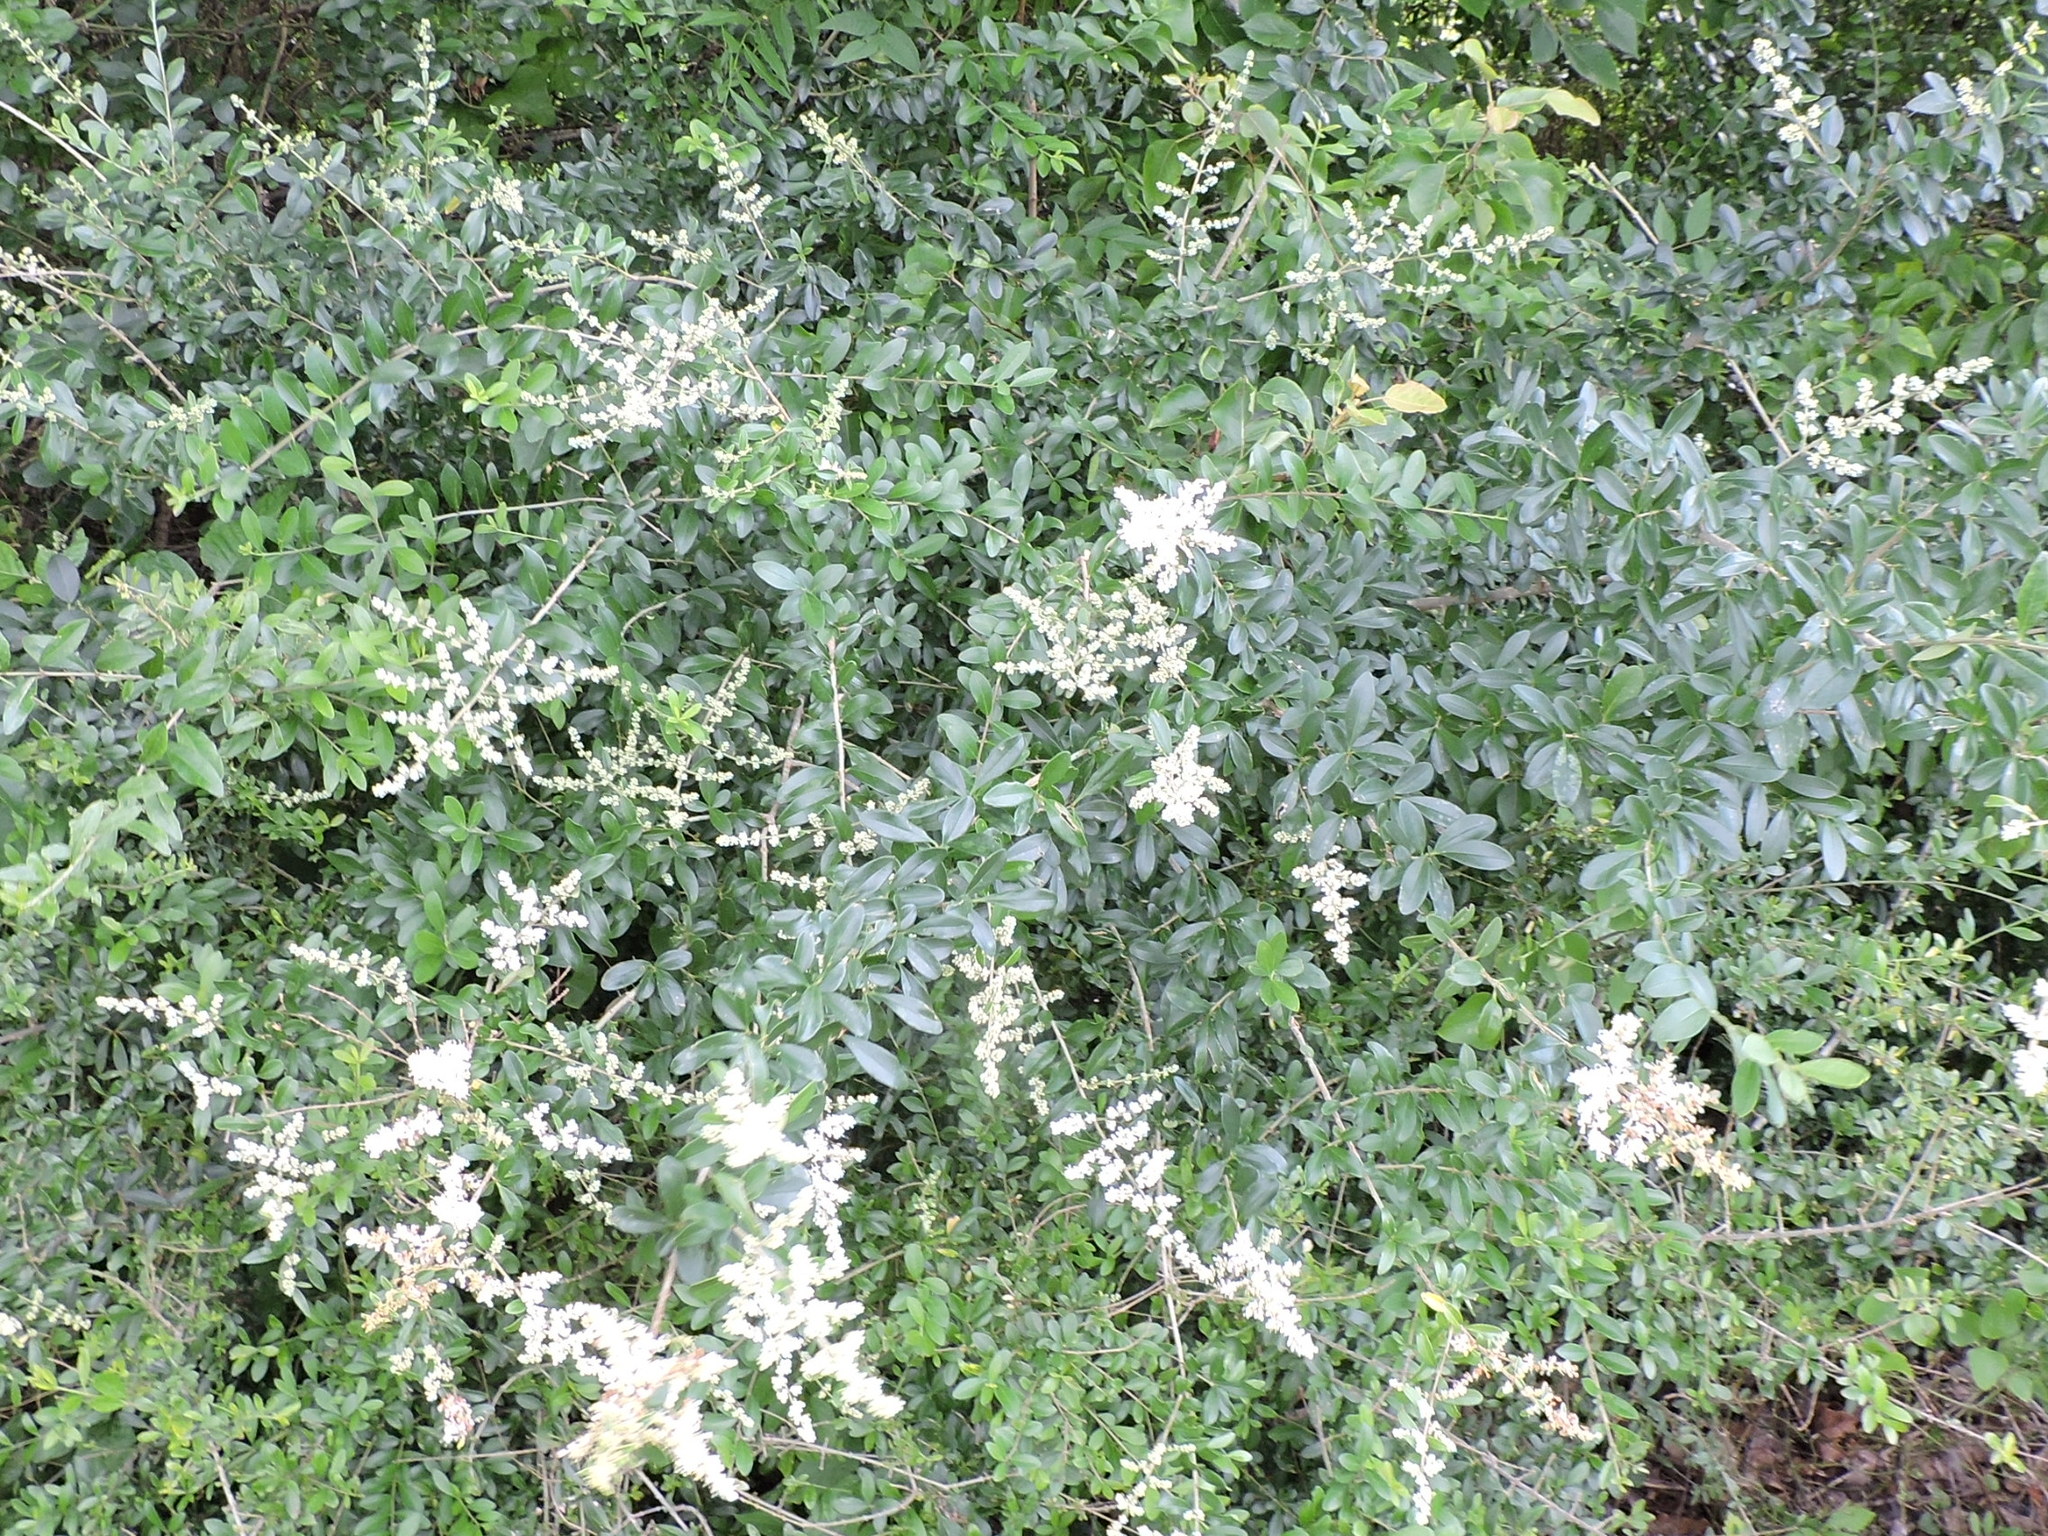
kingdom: Plantae
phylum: Tracheophyta
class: Magnoliopsida
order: Lamiales
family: Oleaceae
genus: Ligustrum
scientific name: Ligustrum quihoui
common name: Waxyleaf privet
